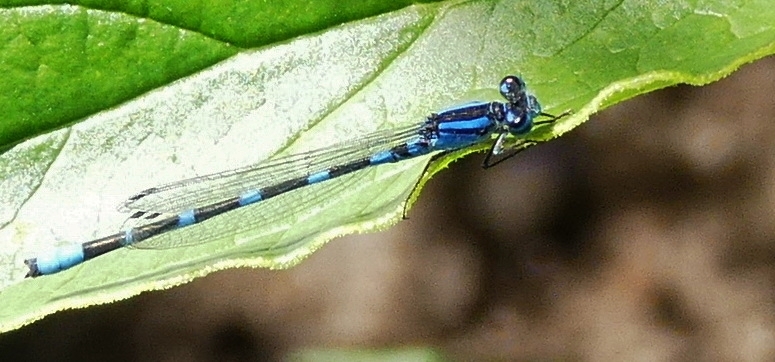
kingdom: Animalia
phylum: Arthropoda
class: Insecta
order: Odonata
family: Coenagrionidae
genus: Enallagma
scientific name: Enallagma carunculatum
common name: Tule bluet
